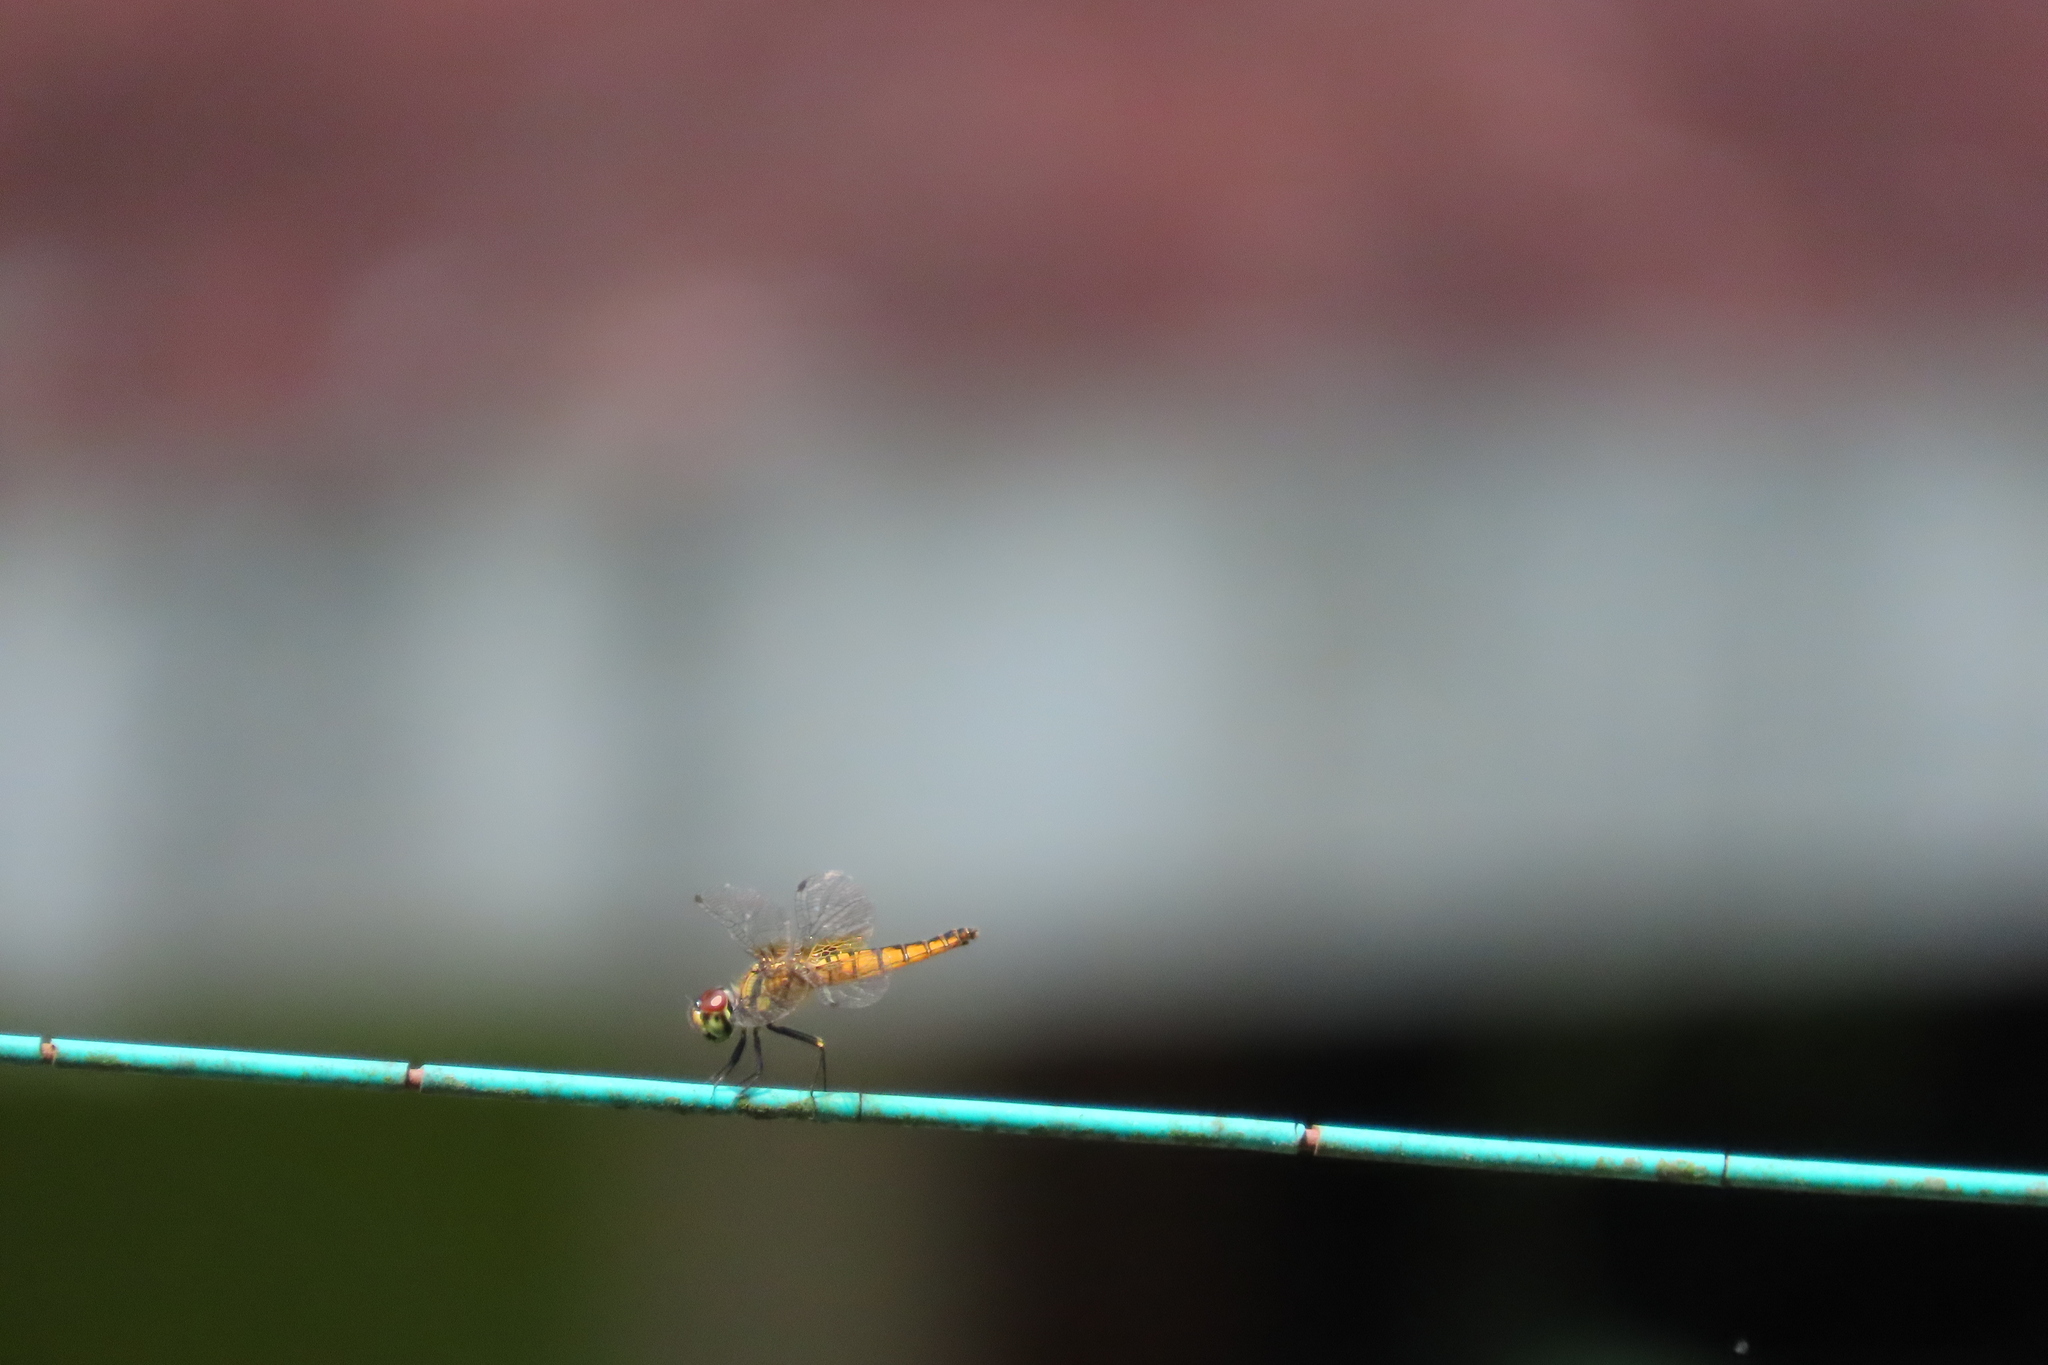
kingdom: Animalia
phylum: Arthropoda
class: Insecta
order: Odonata
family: Libellulidae
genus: Aethriamanta
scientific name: Aethriamanta brevipennis
